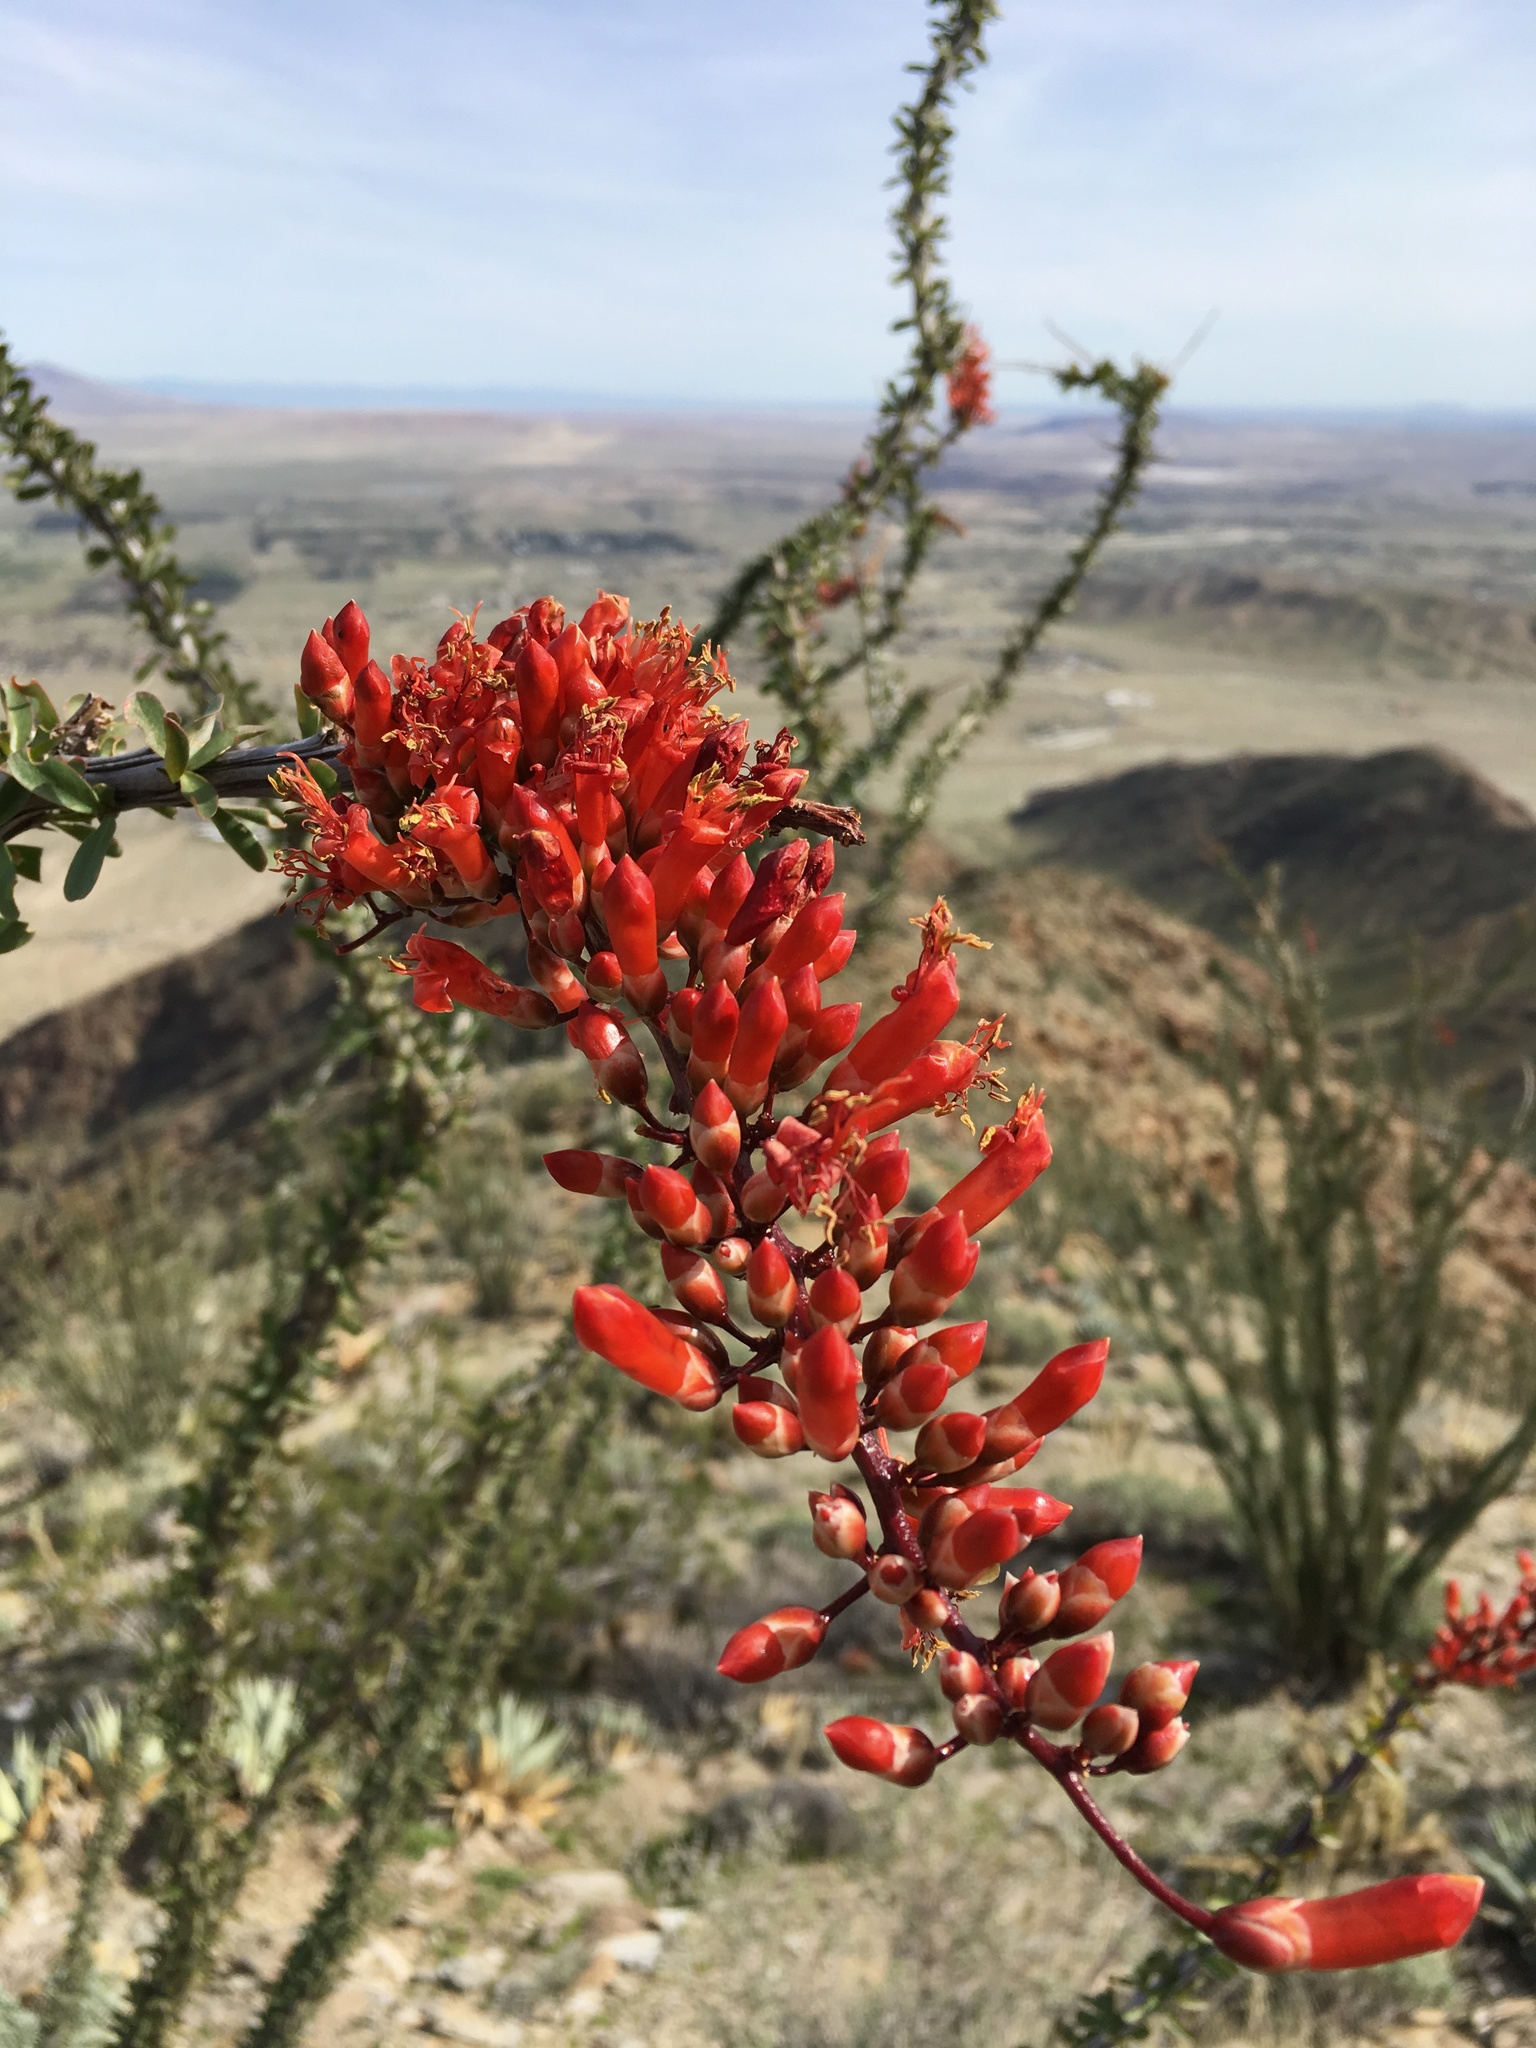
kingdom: Plantae
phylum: Tracheophyta
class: Magnoliopsida
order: Ericales
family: Fouquieriaceae
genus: Fouquieria
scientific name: Fouquieria splendens
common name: Vine-cactus
